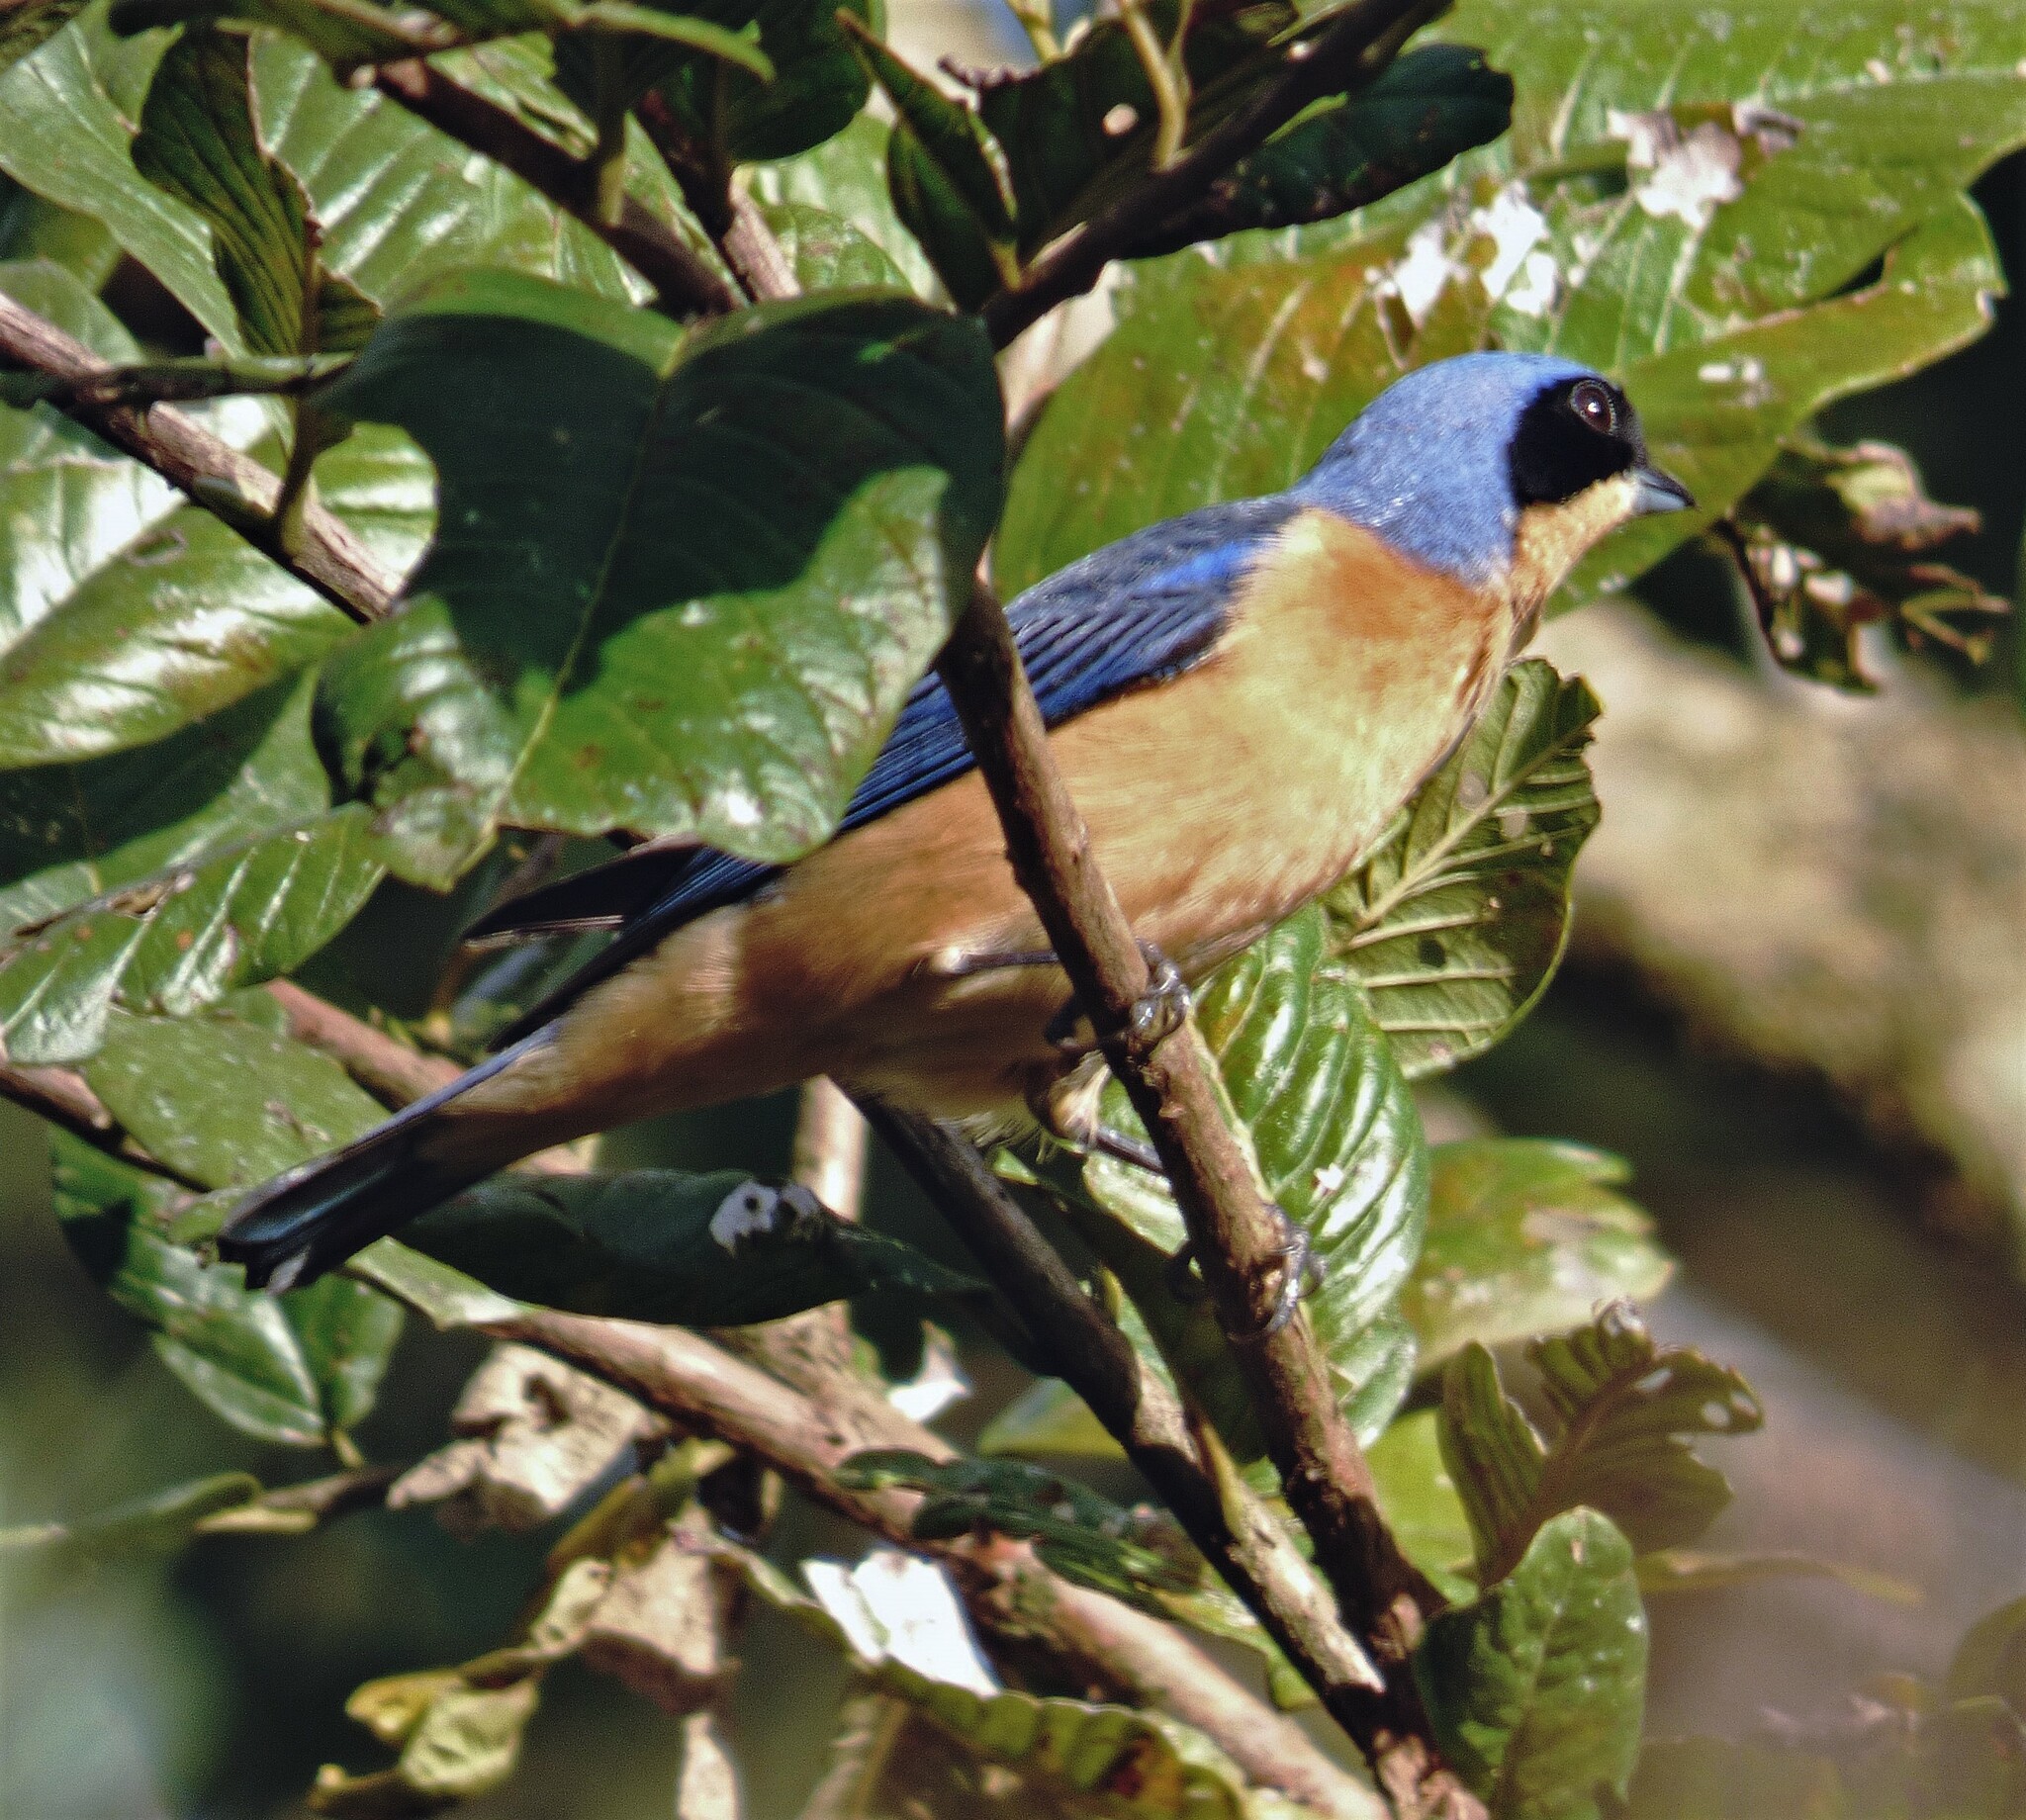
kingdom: Animalia
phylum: Chordata
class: Aves
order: Passeriformes
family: Thraupidae
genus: Pipraeidea
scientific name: Pipraeidea melanonota
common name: Fawn-breasted tanager
